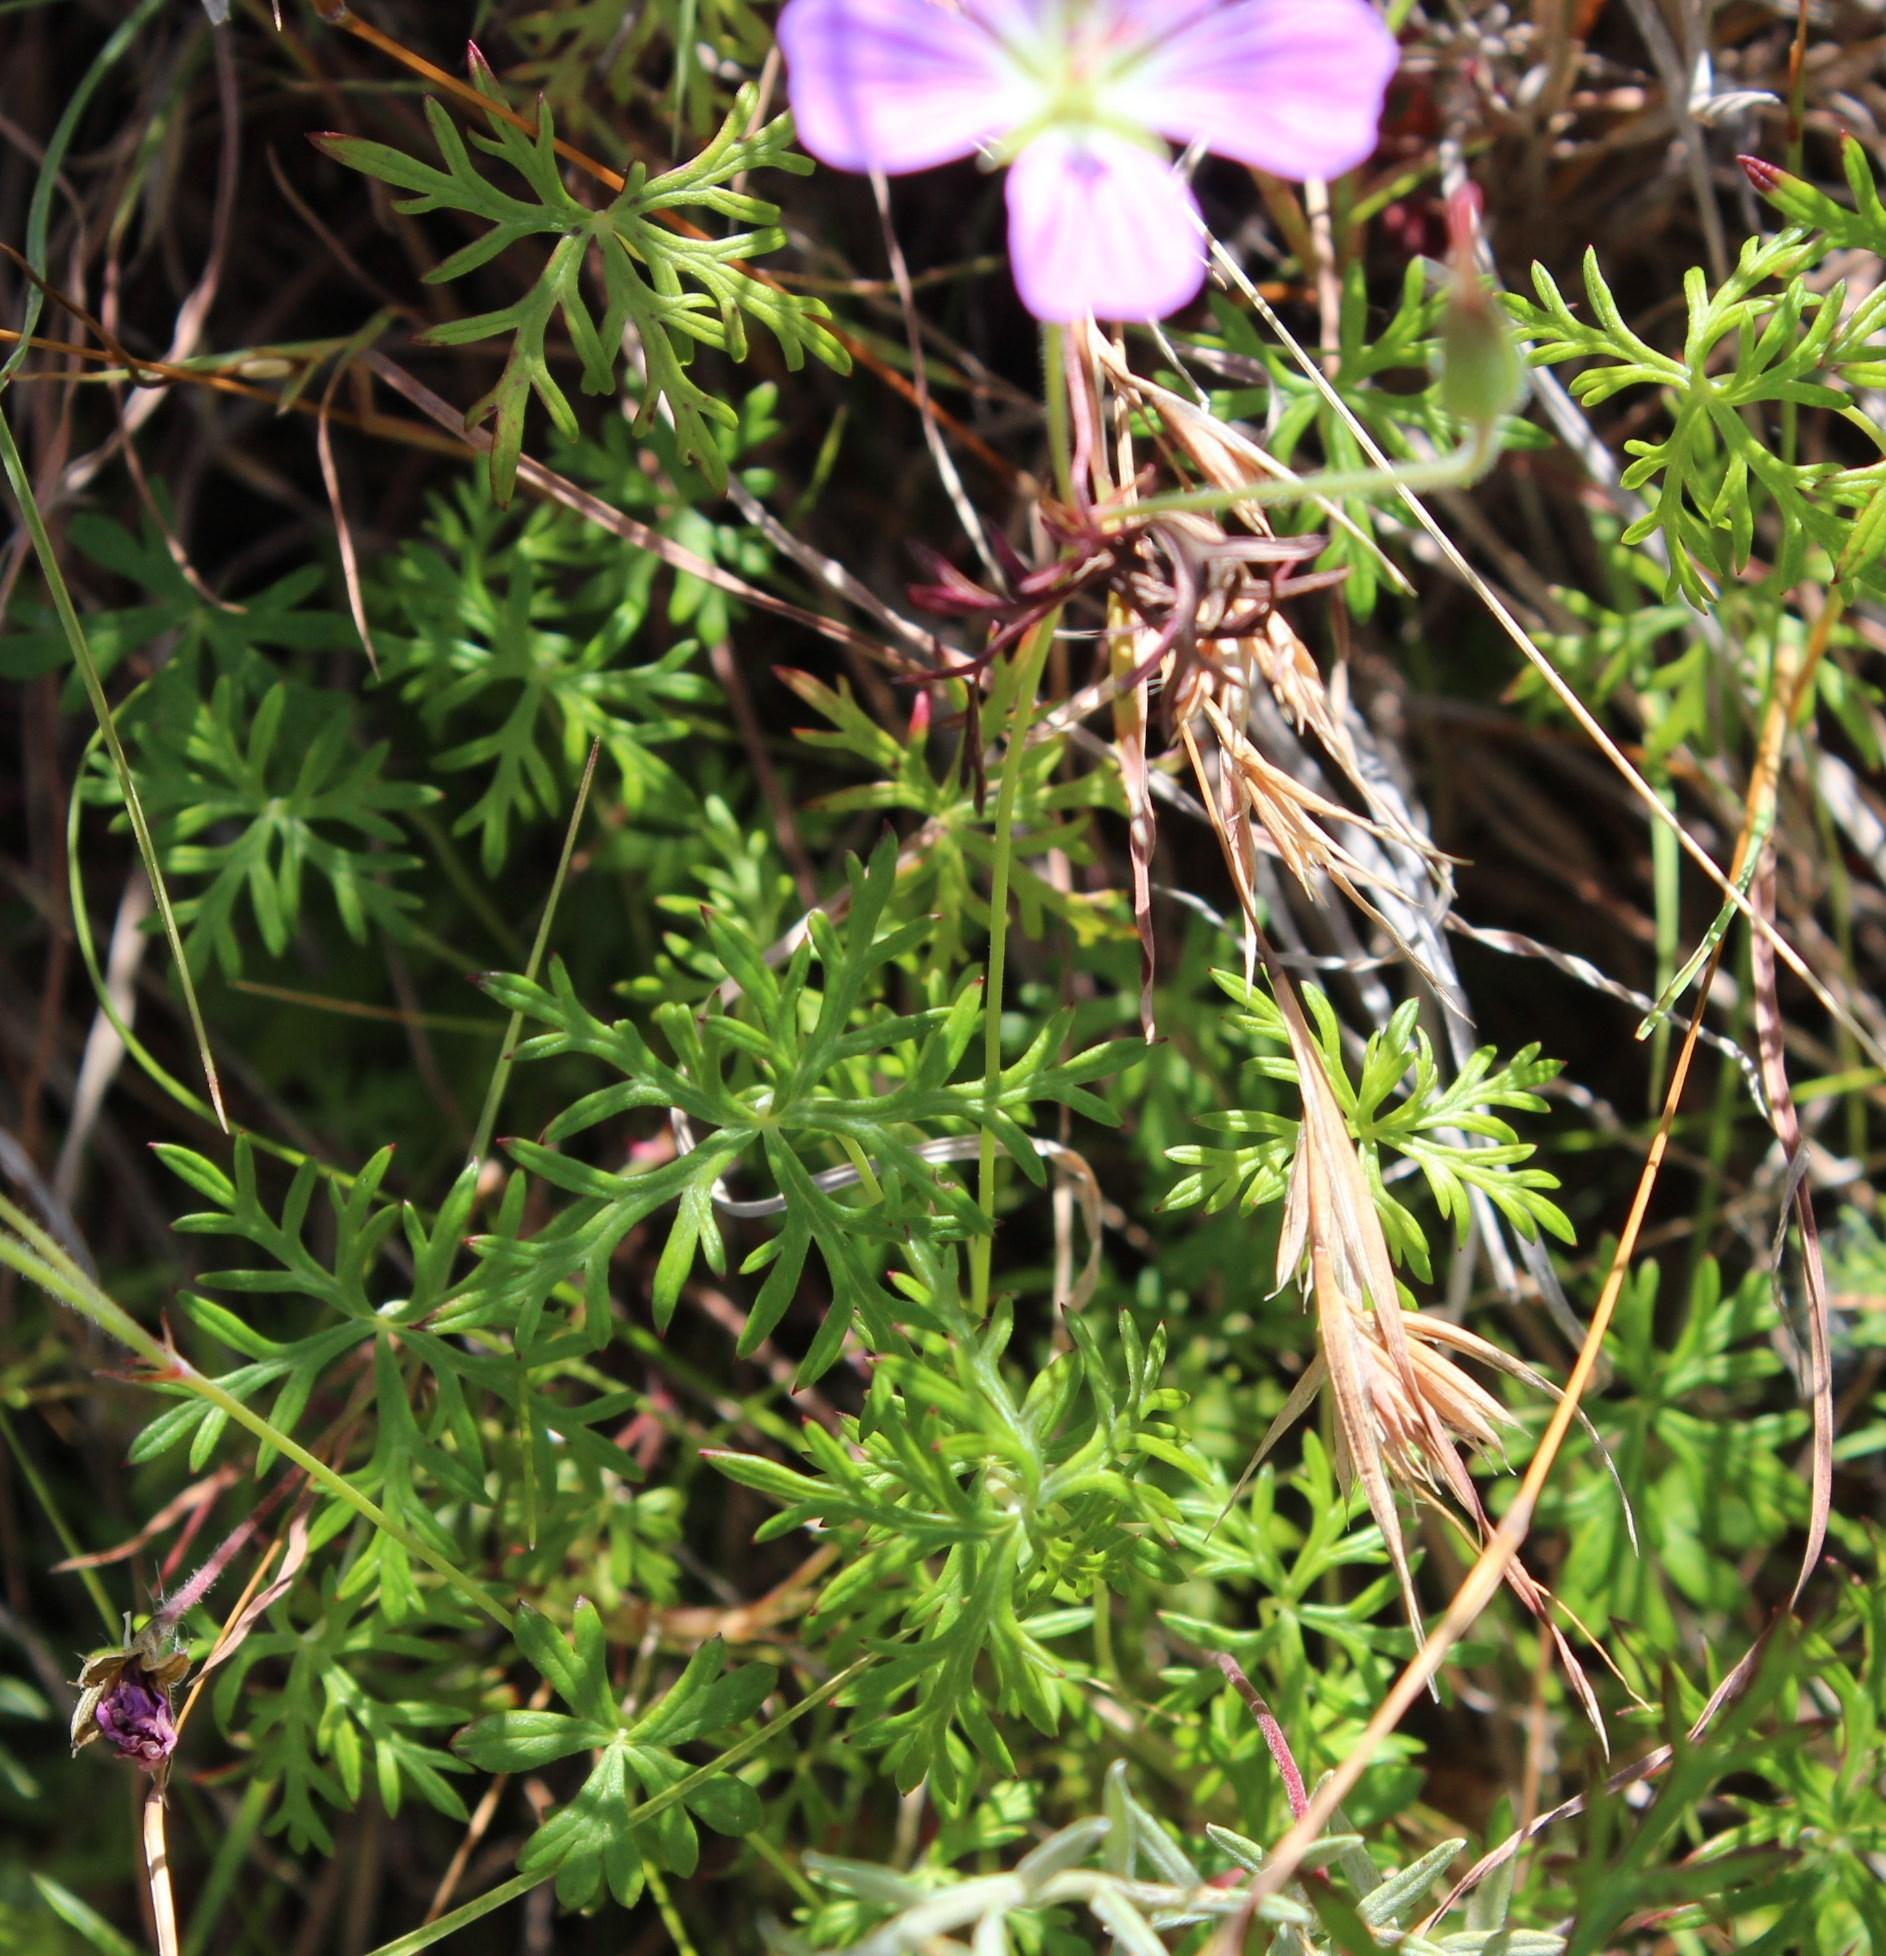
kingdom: Plantae
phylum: Tracheophyta
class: Magnoliopsida
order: Geraniales
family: Geraniaceae
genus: Geranium
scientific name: Geranium incanum
